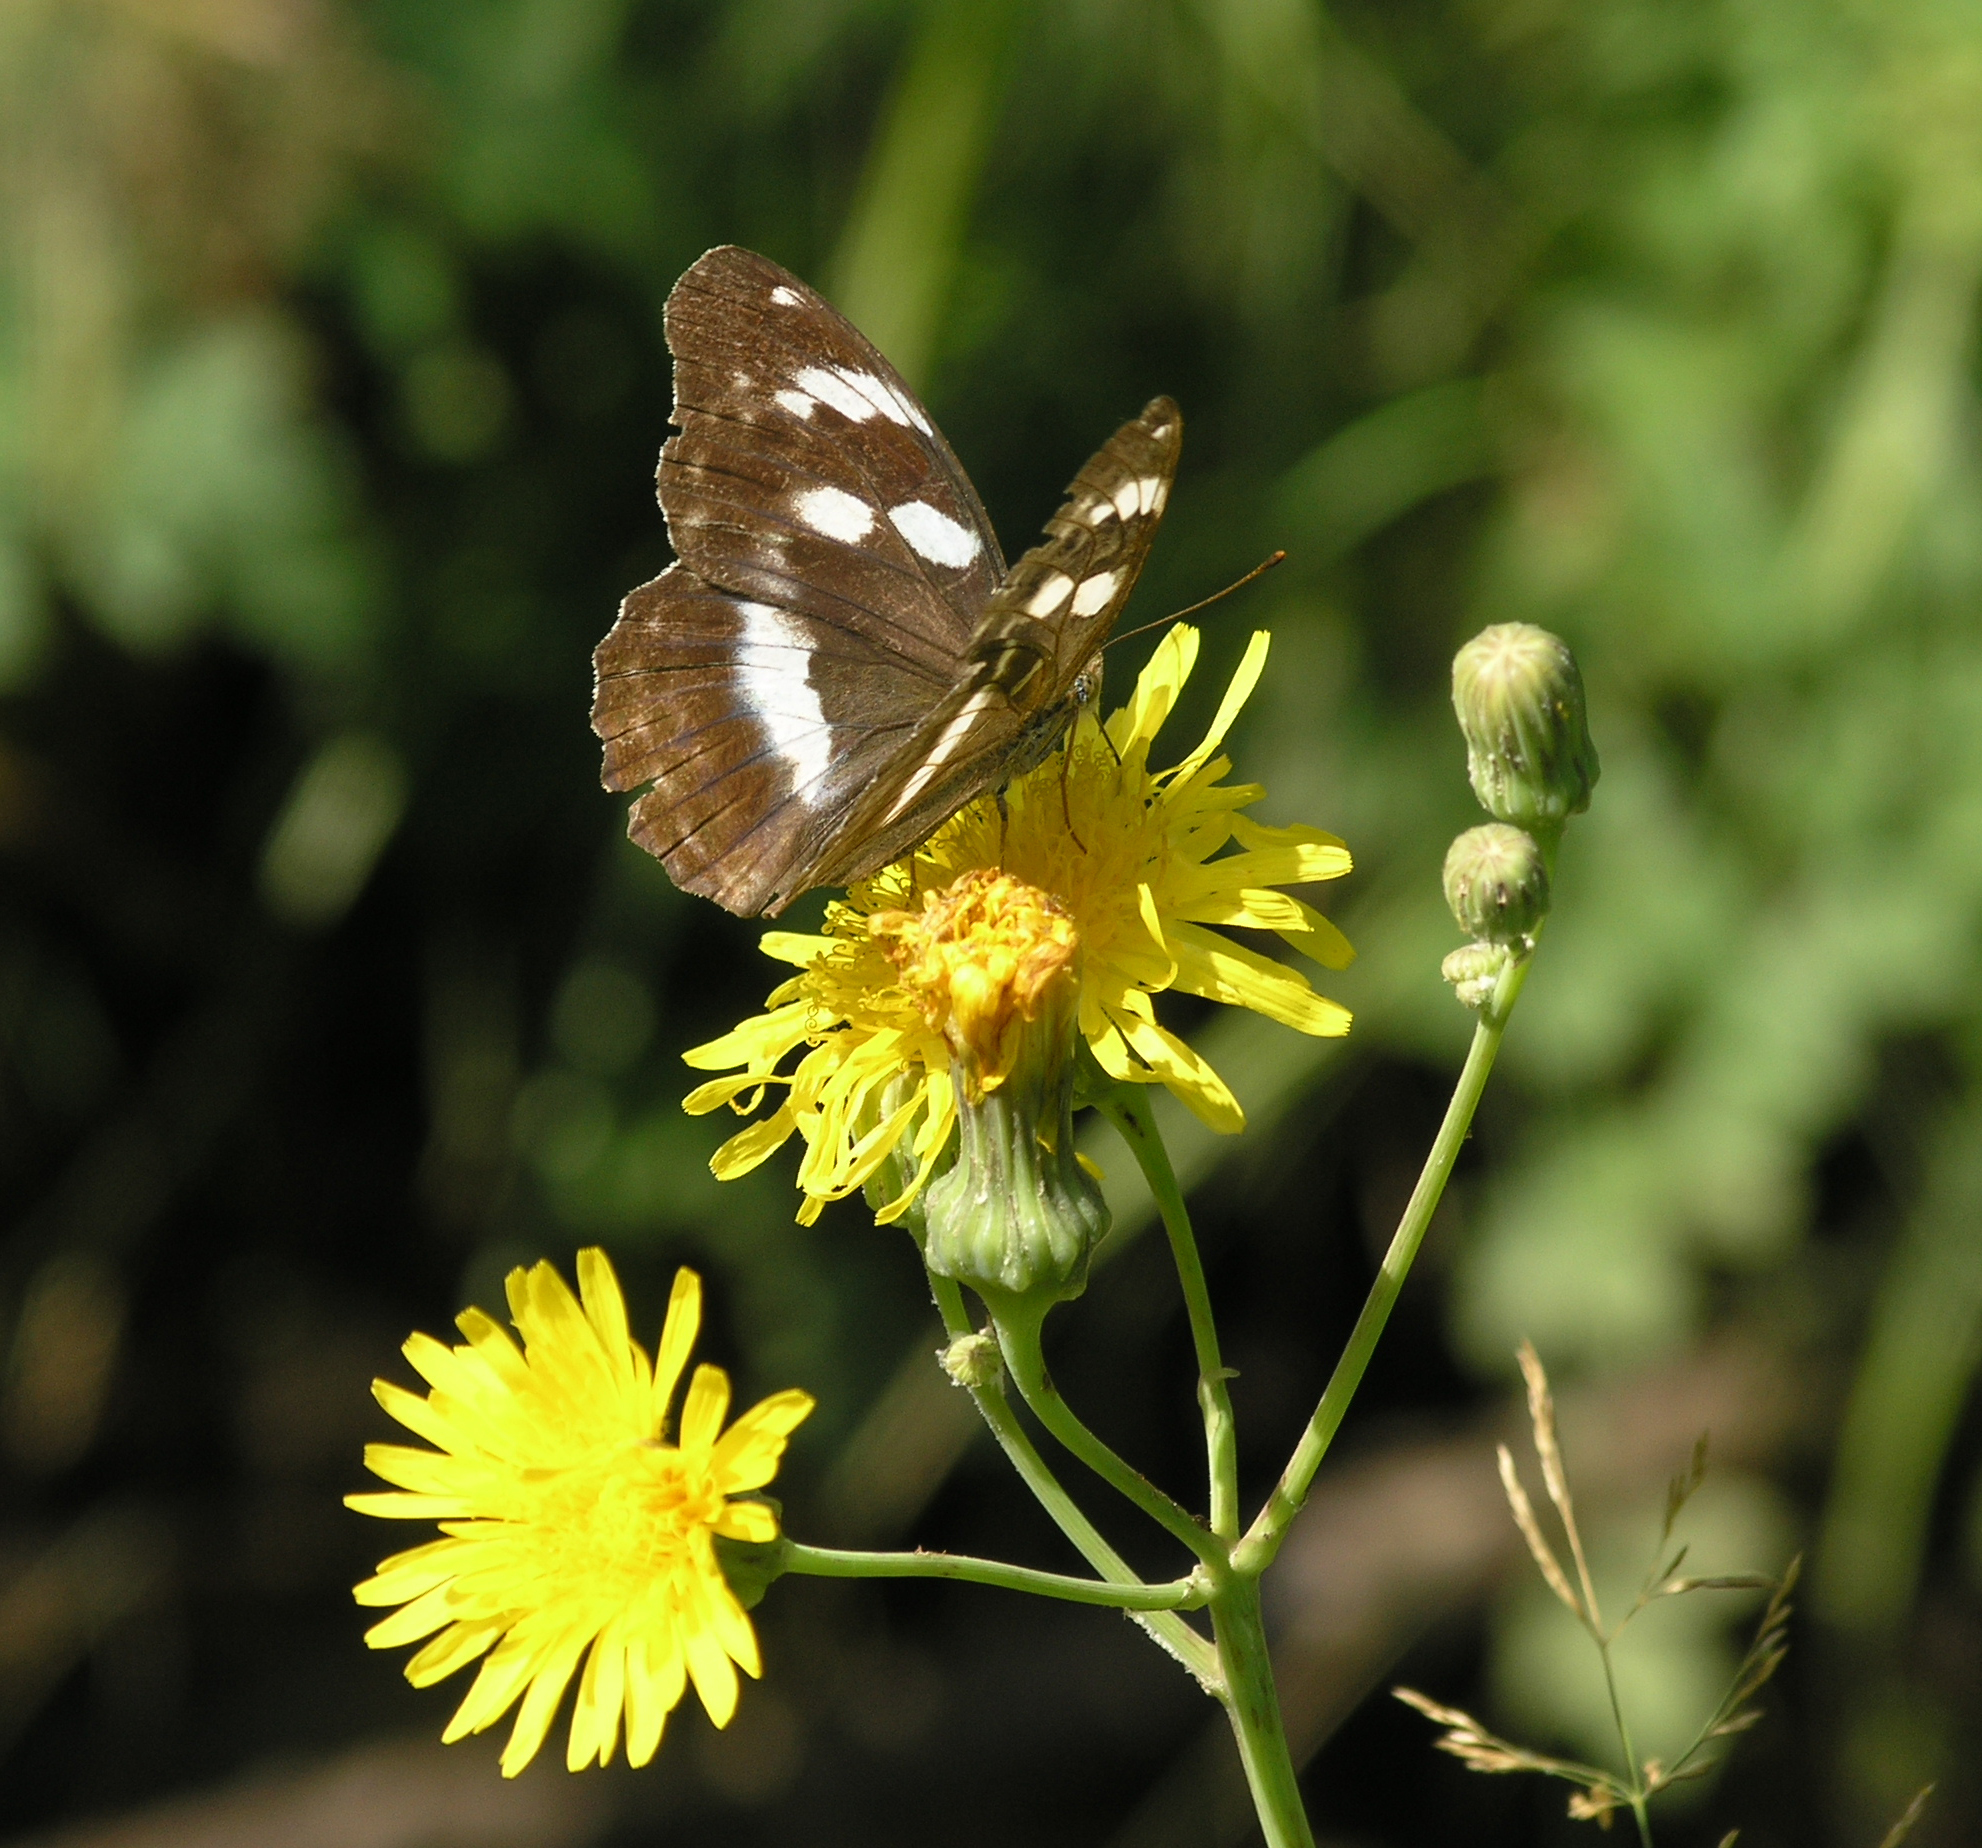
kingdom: Plantae
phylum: Tracheophyta
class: Magnoliopsida
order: Asterales
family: Asteraceae
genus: Sonchus
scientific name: Sonchus arvensis
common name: Perennial sow-thistle
